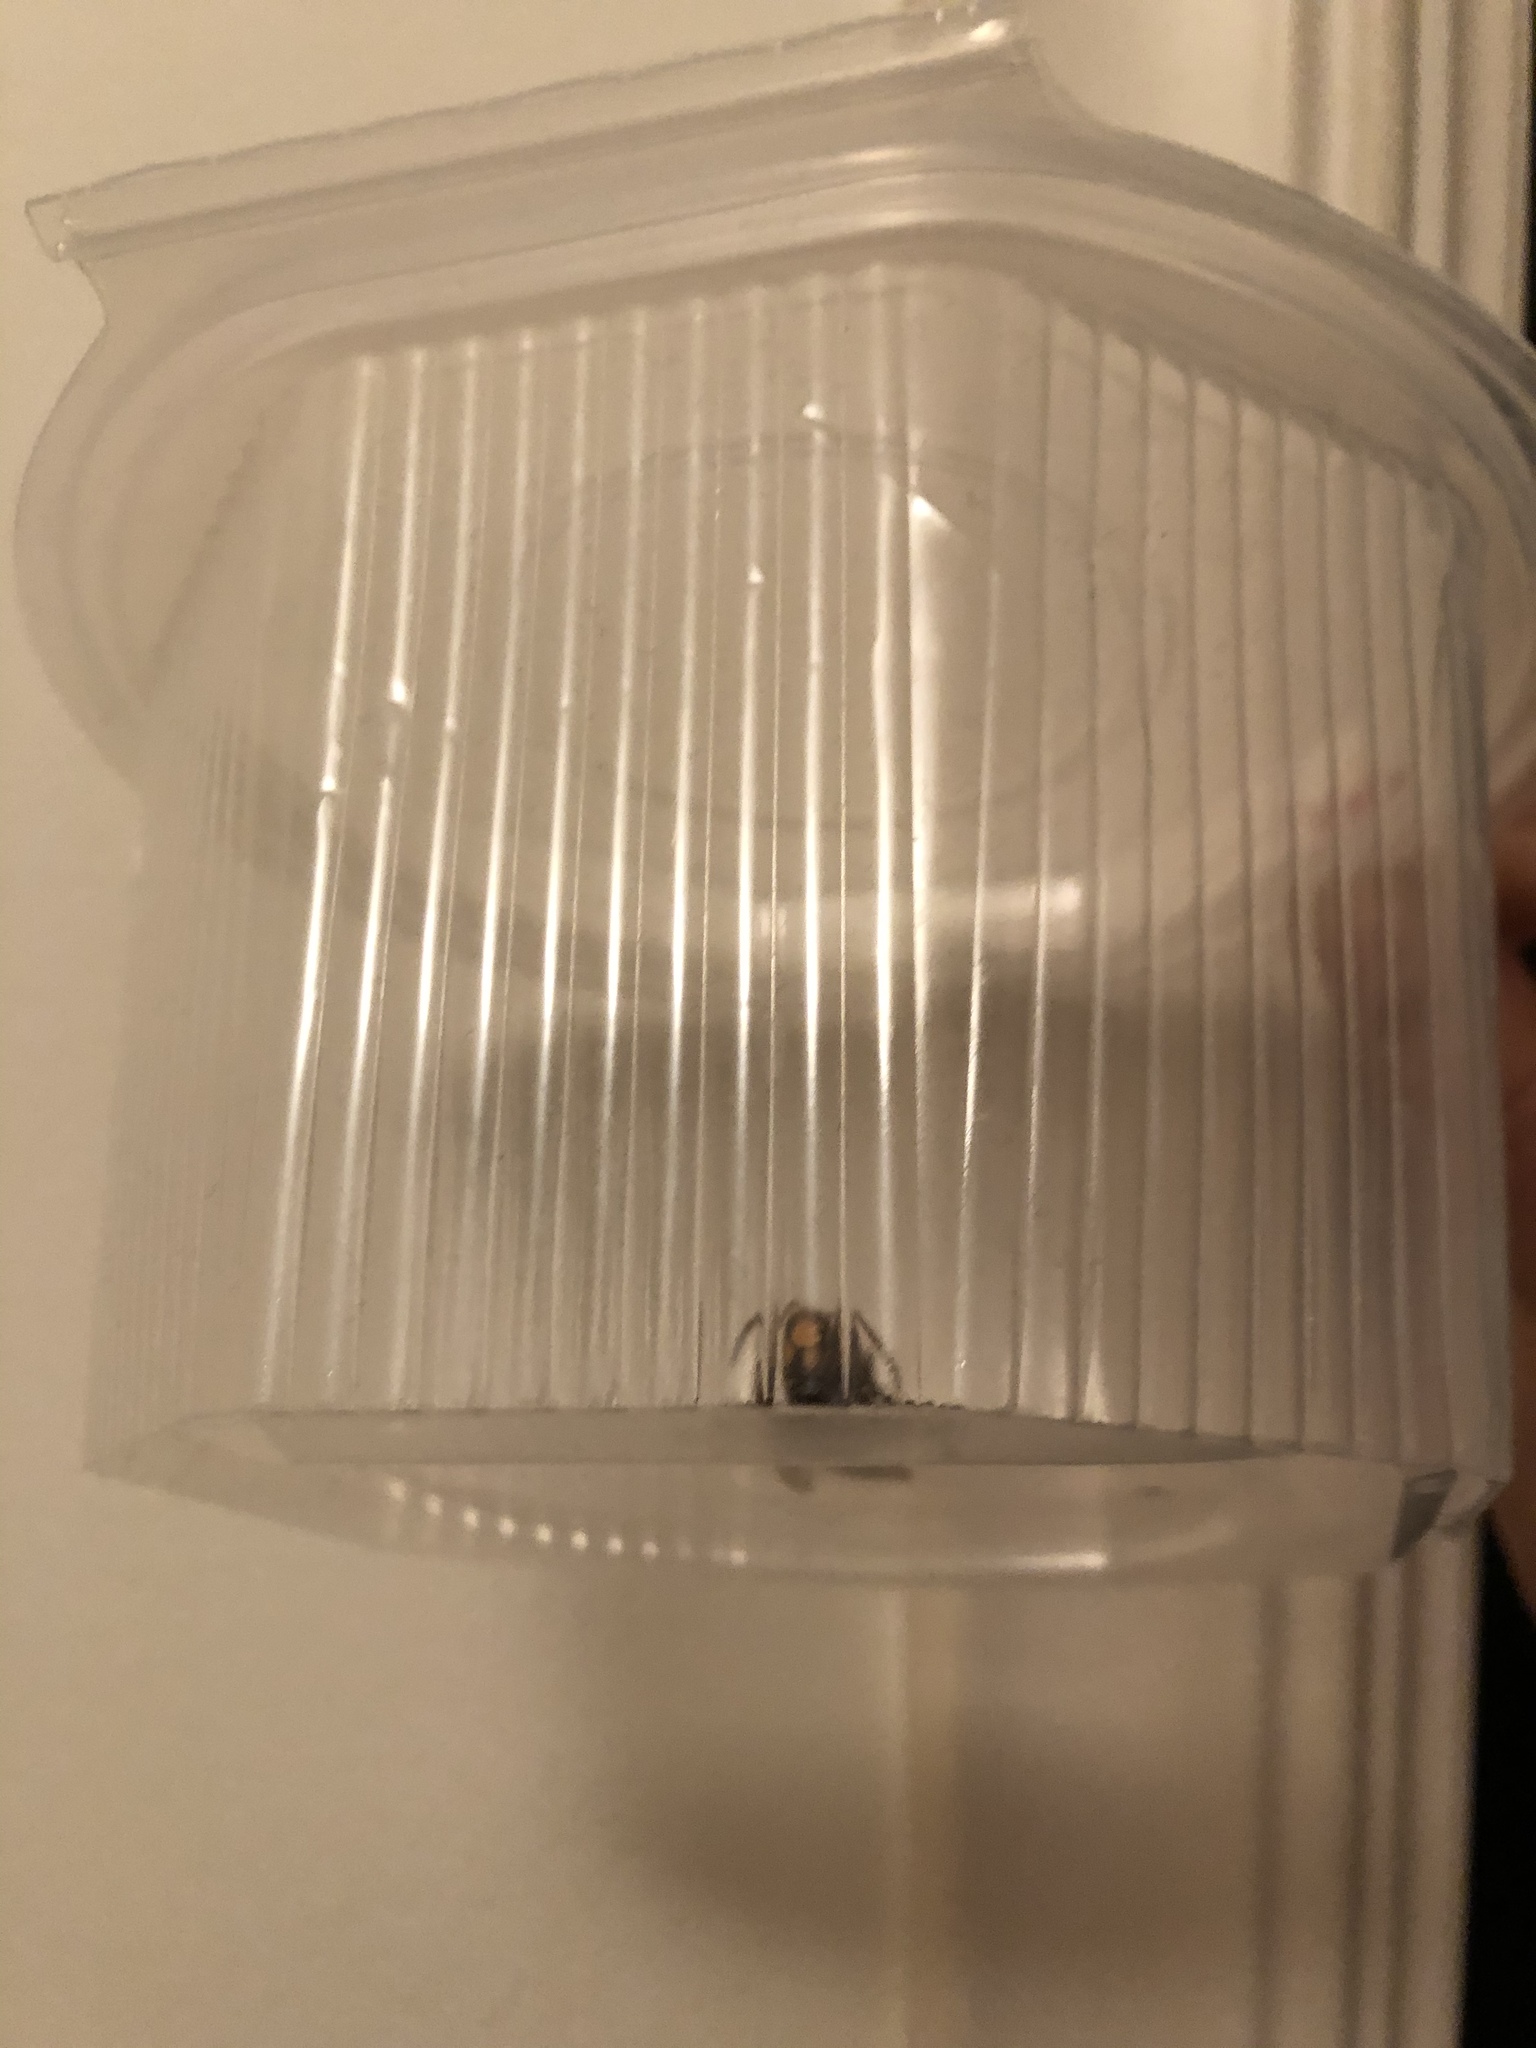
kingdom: Animalia
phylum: Arthropoda
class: Insecta
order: Hymenoptera
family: Vespidae
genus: Vespa
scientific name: Vespa crabro
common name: Hornet
